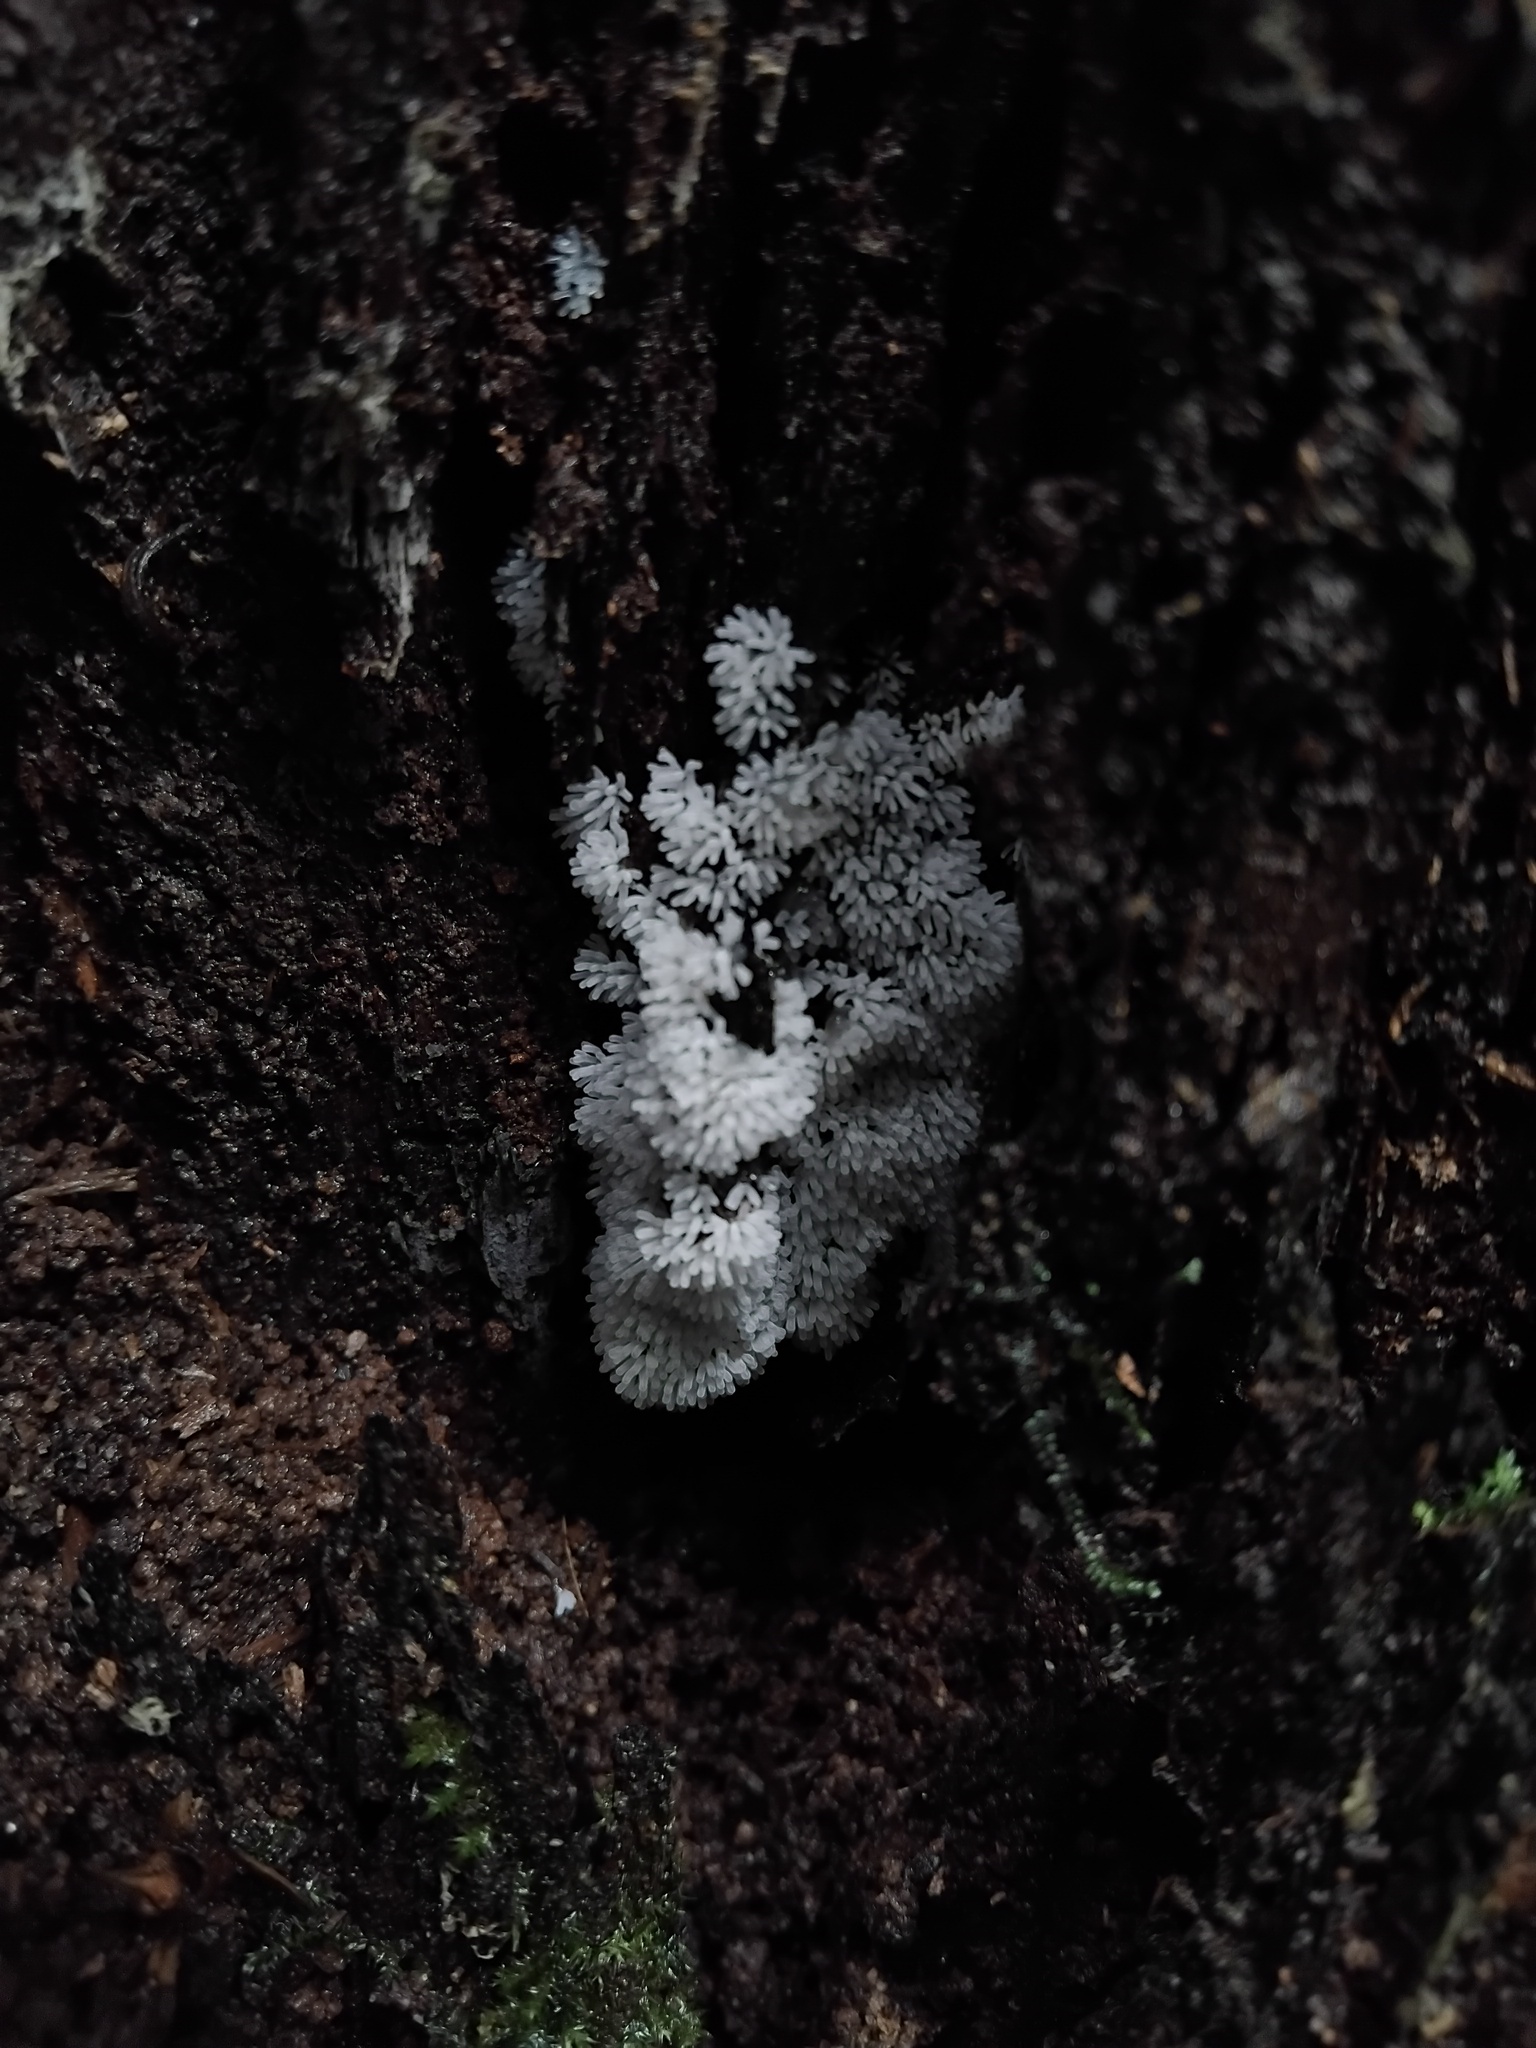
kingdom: Protozoa
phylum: Mycetozoa
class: Protosteliomycetes
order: Ceratiomyxales
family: Ceratiomyxaceae
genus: Ceratiomyxa
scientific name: Ceratiomyxa fruticulosa
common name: Honeycomb coral slime mold
